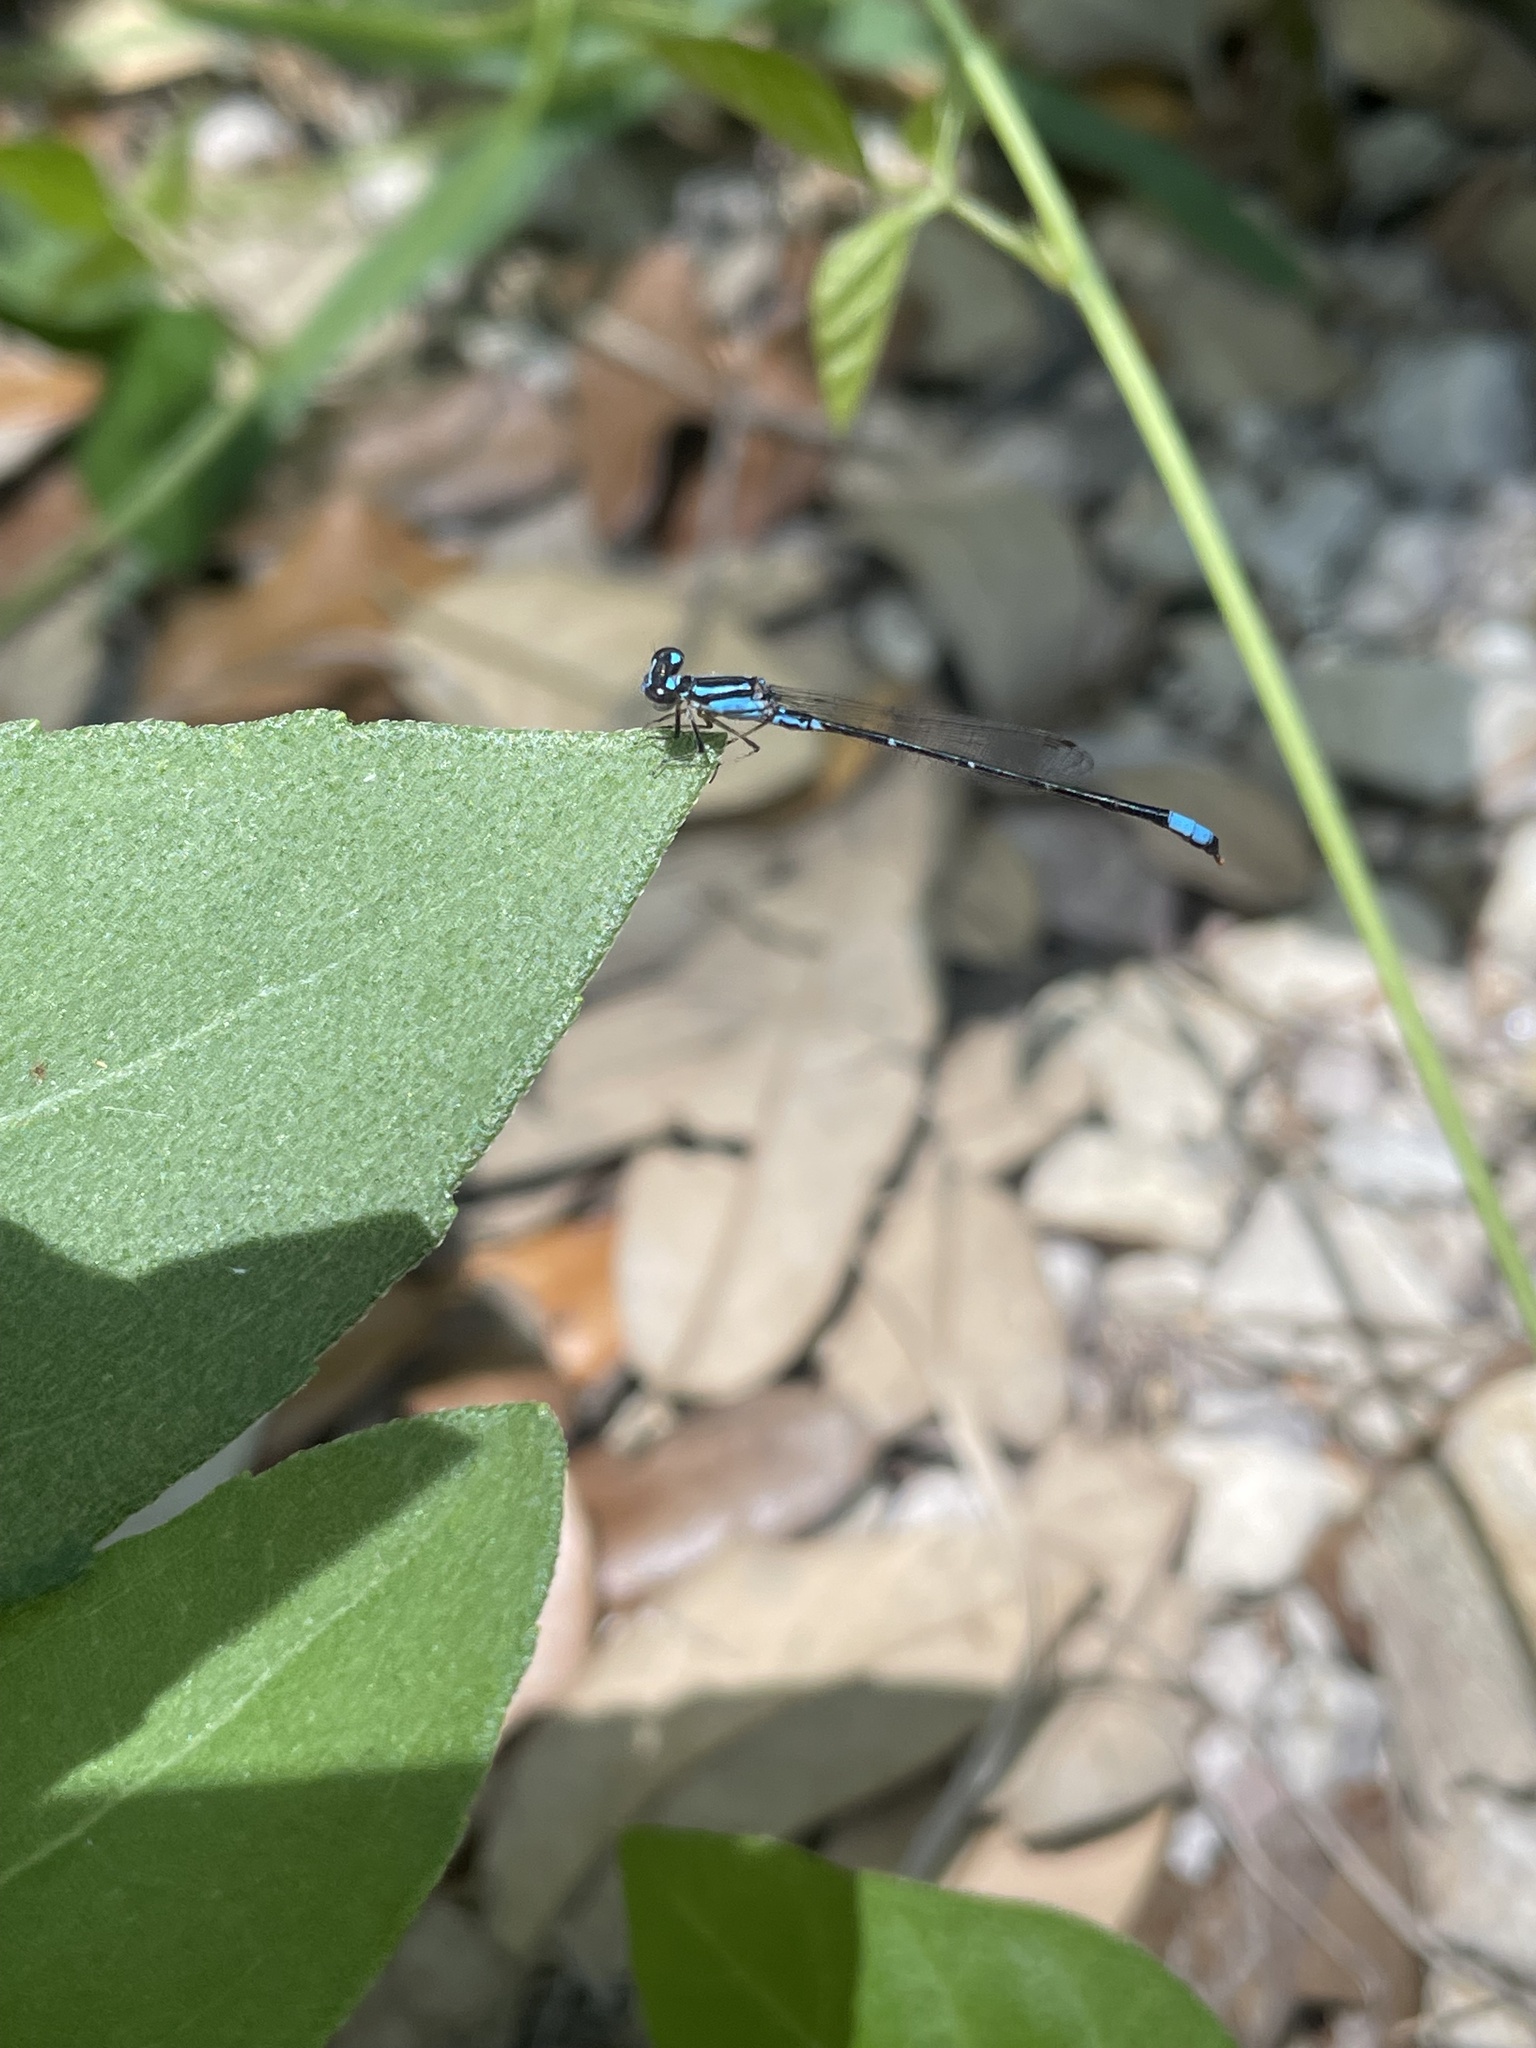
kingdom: Animalia
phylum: Arthropoda
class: Insecta
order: Odonata
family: Coenagrionidae
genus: Enallagma
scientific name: Enallagma geminatum
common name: Skimming bluet
